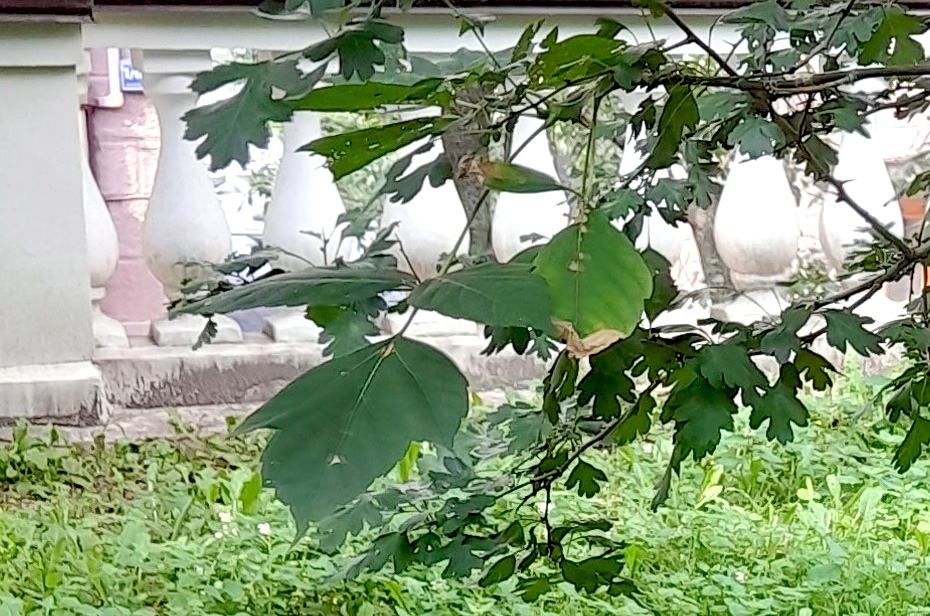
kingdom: Plantae
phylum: Tracheophyta
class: Magnoliopsida
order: Sapindales
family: Sapindaceae
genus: Acer
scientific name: Acer negundo
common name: Ashleaf maple
